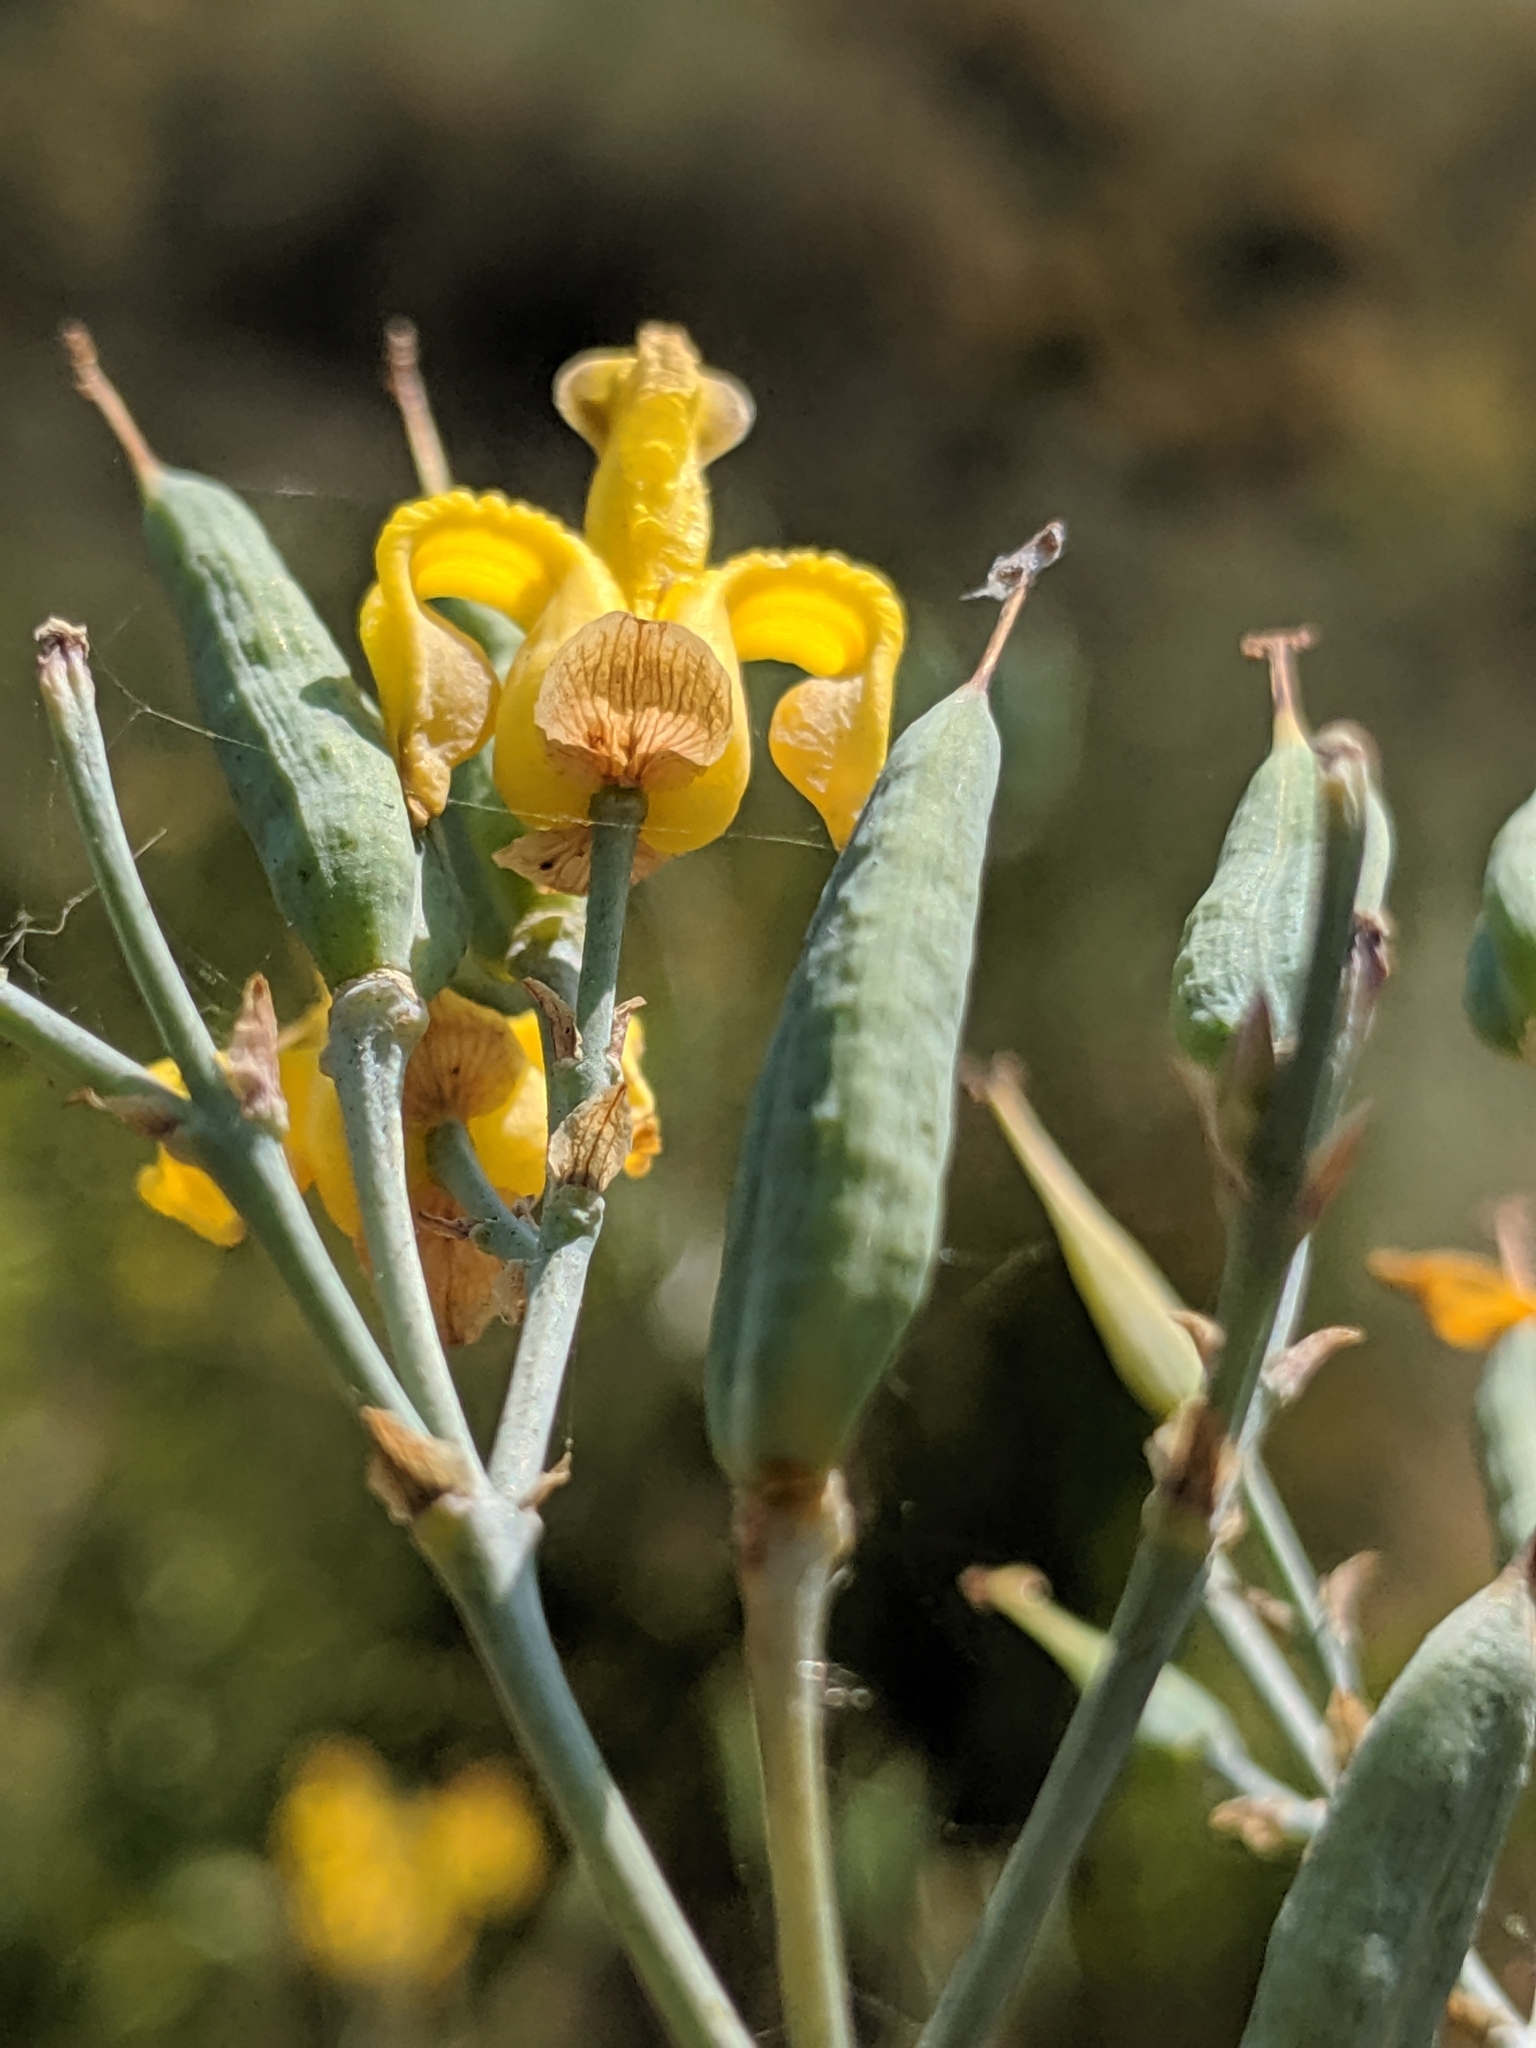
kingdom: Plantae
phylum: Tracheophyta
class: Magnoliopsida
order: Ranunculales
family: Papaveraceae
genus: Ehrendorferia
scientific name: Ehrendorferia chrysantha
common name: Golden eardrops
